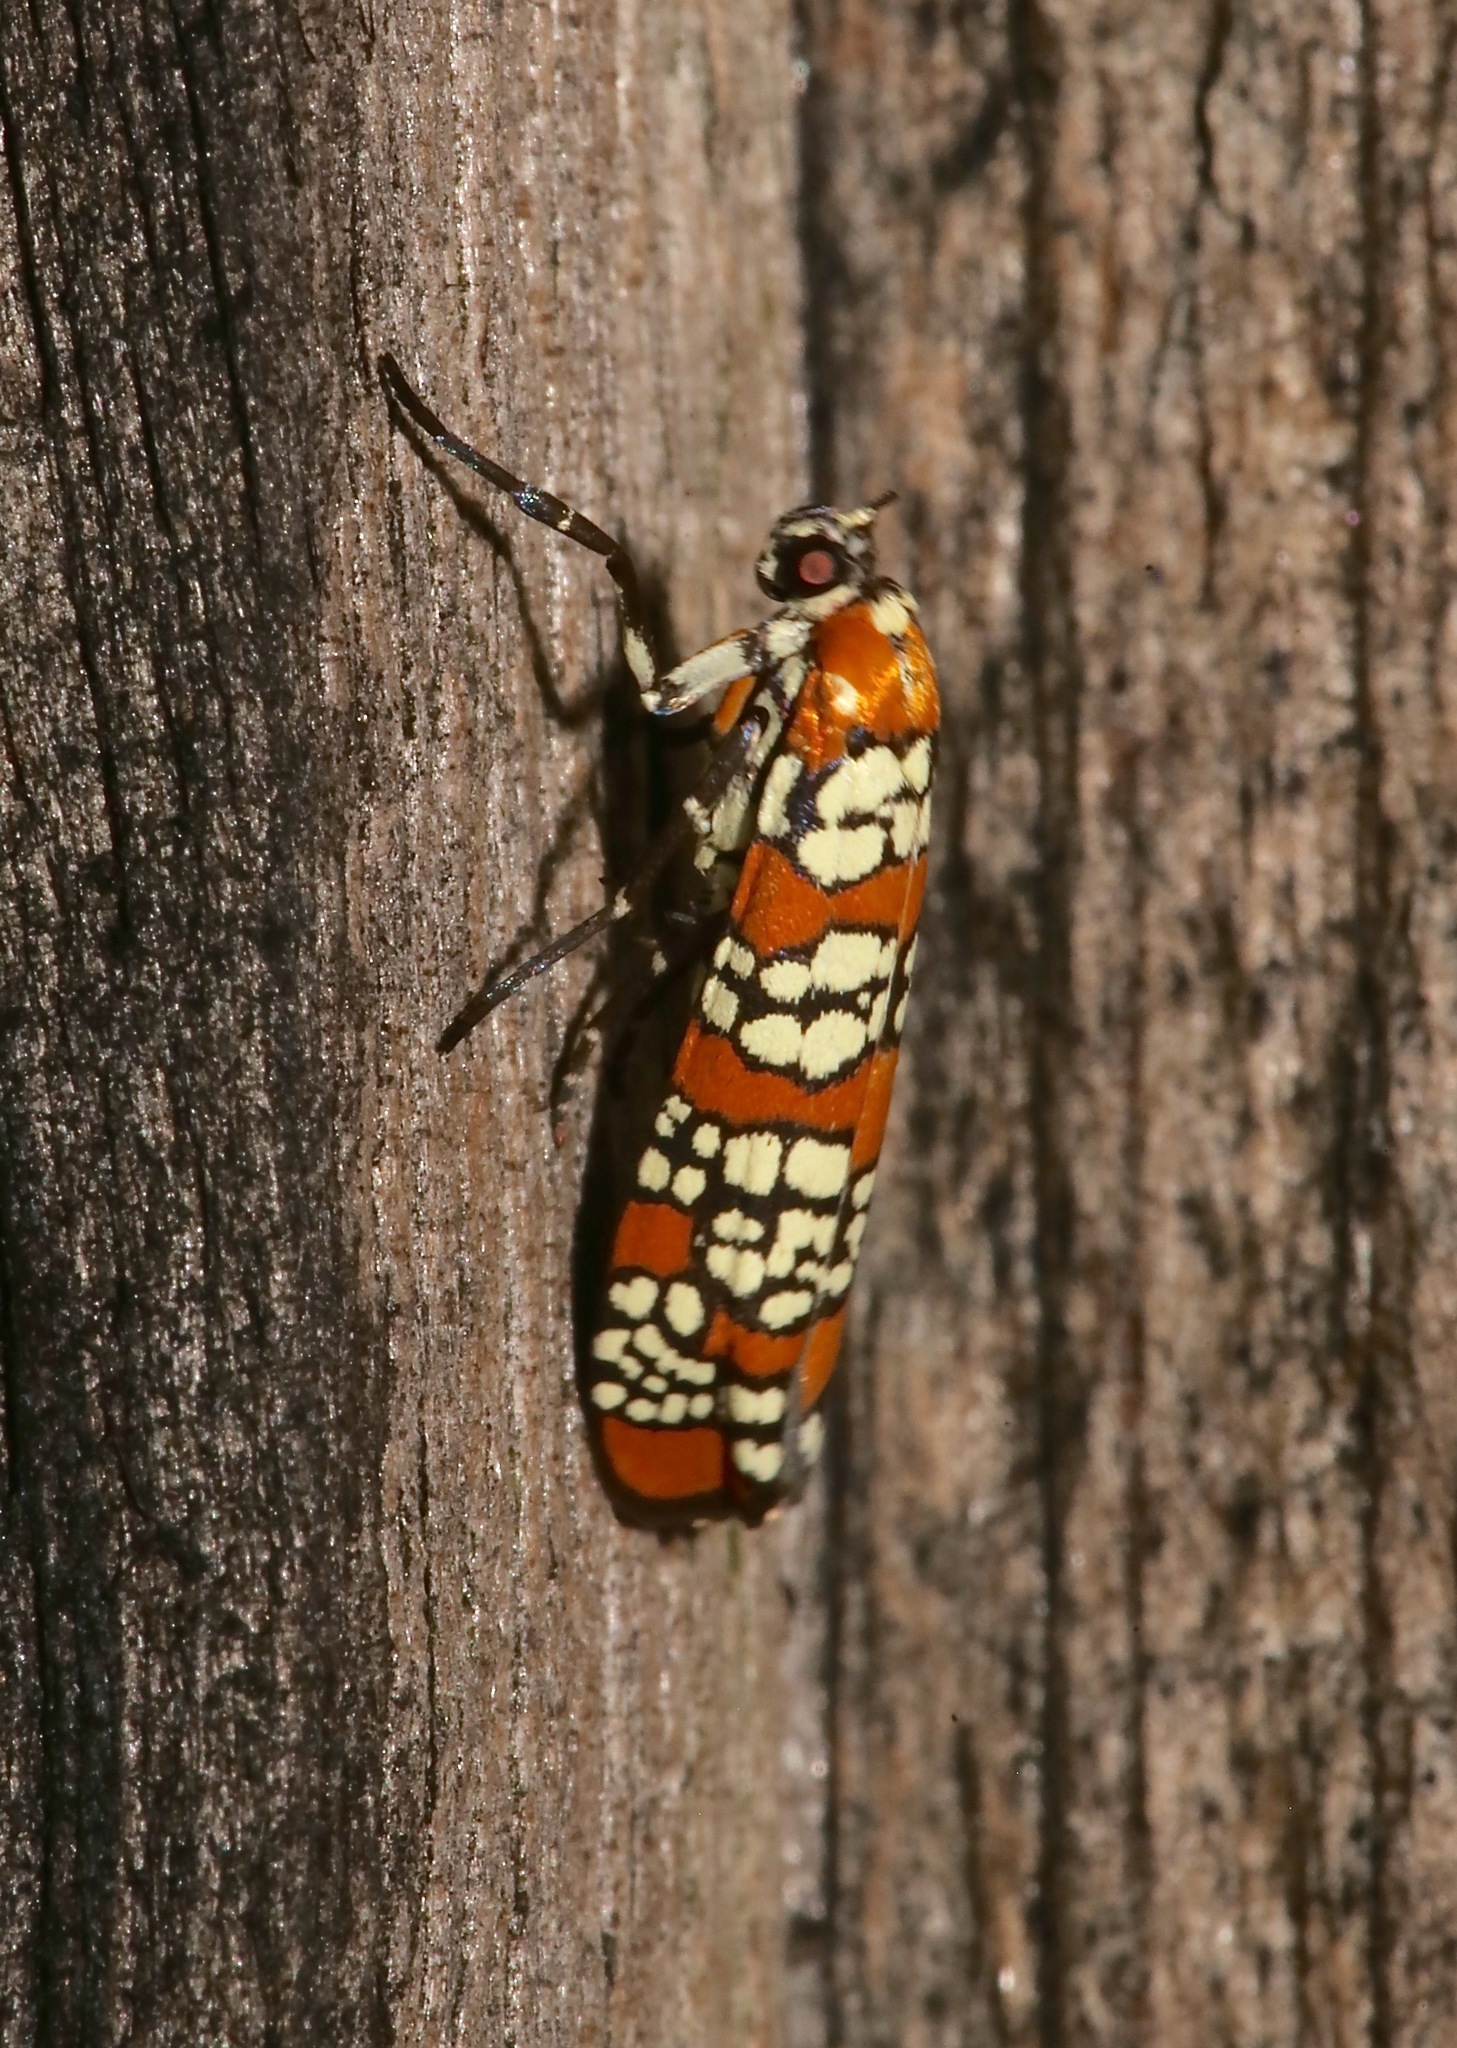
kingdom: Animalia
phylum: Arthropoda
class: Insecta
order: Lepidoptera
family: Attevidae
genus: Atteva
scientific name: Atteva punctella
